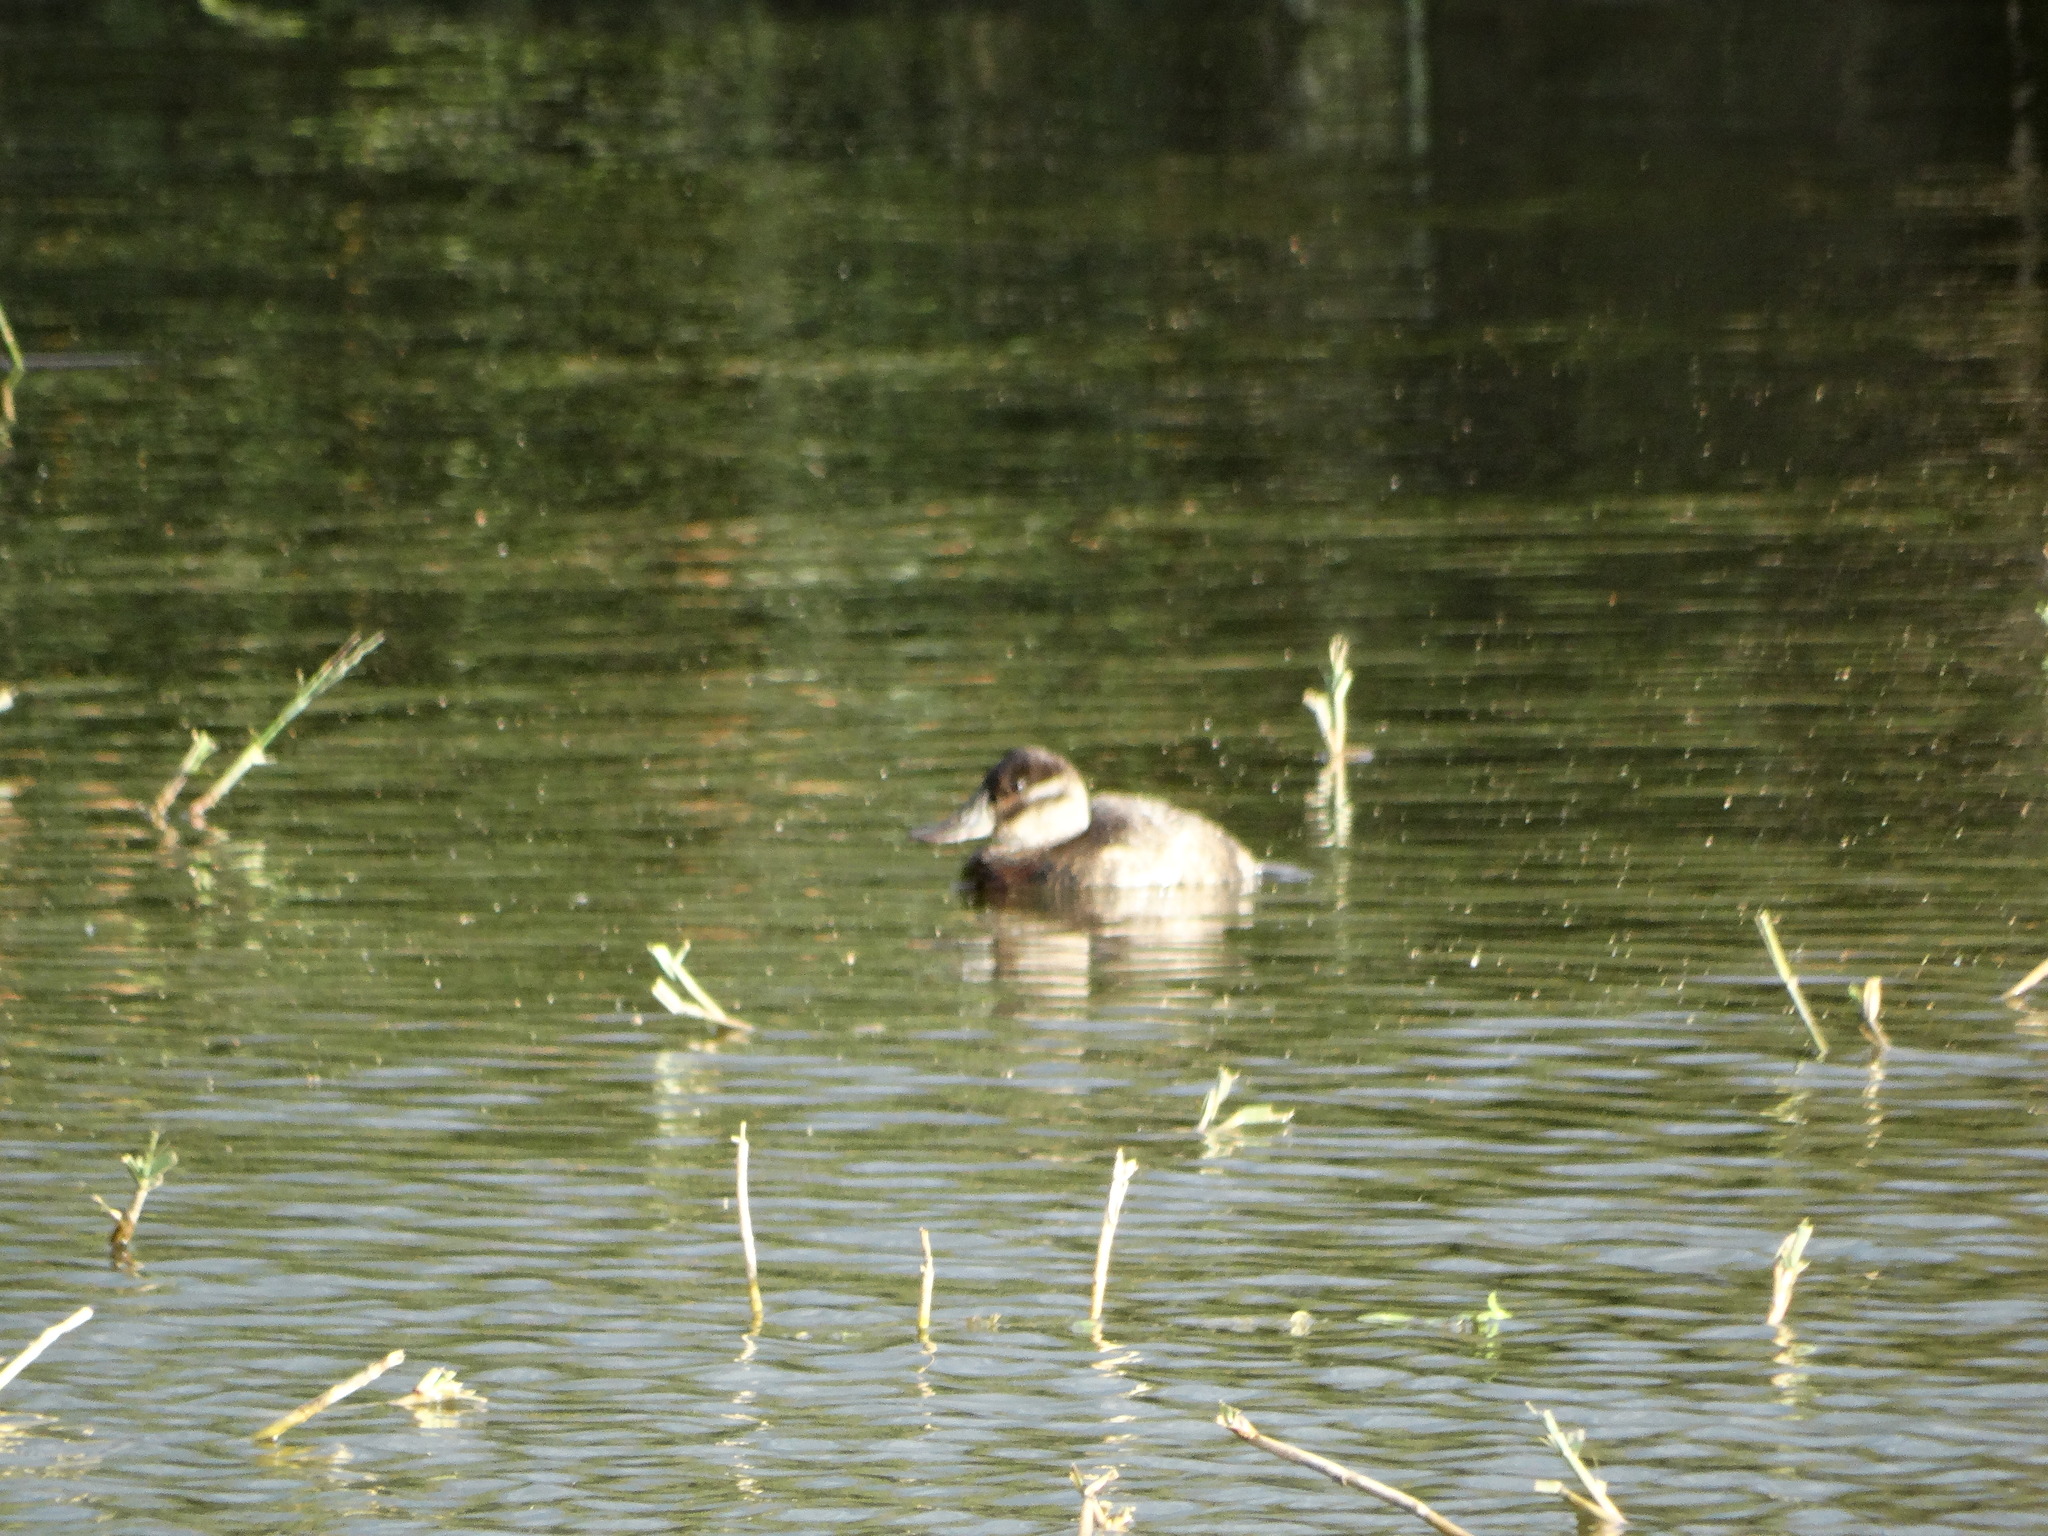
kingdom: Animalia
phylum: Chordata
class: Aves
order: Anseriformes
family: Anatidae
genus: Oxyura
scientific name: Oxyura jamaicensis
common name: Ruddy duck
